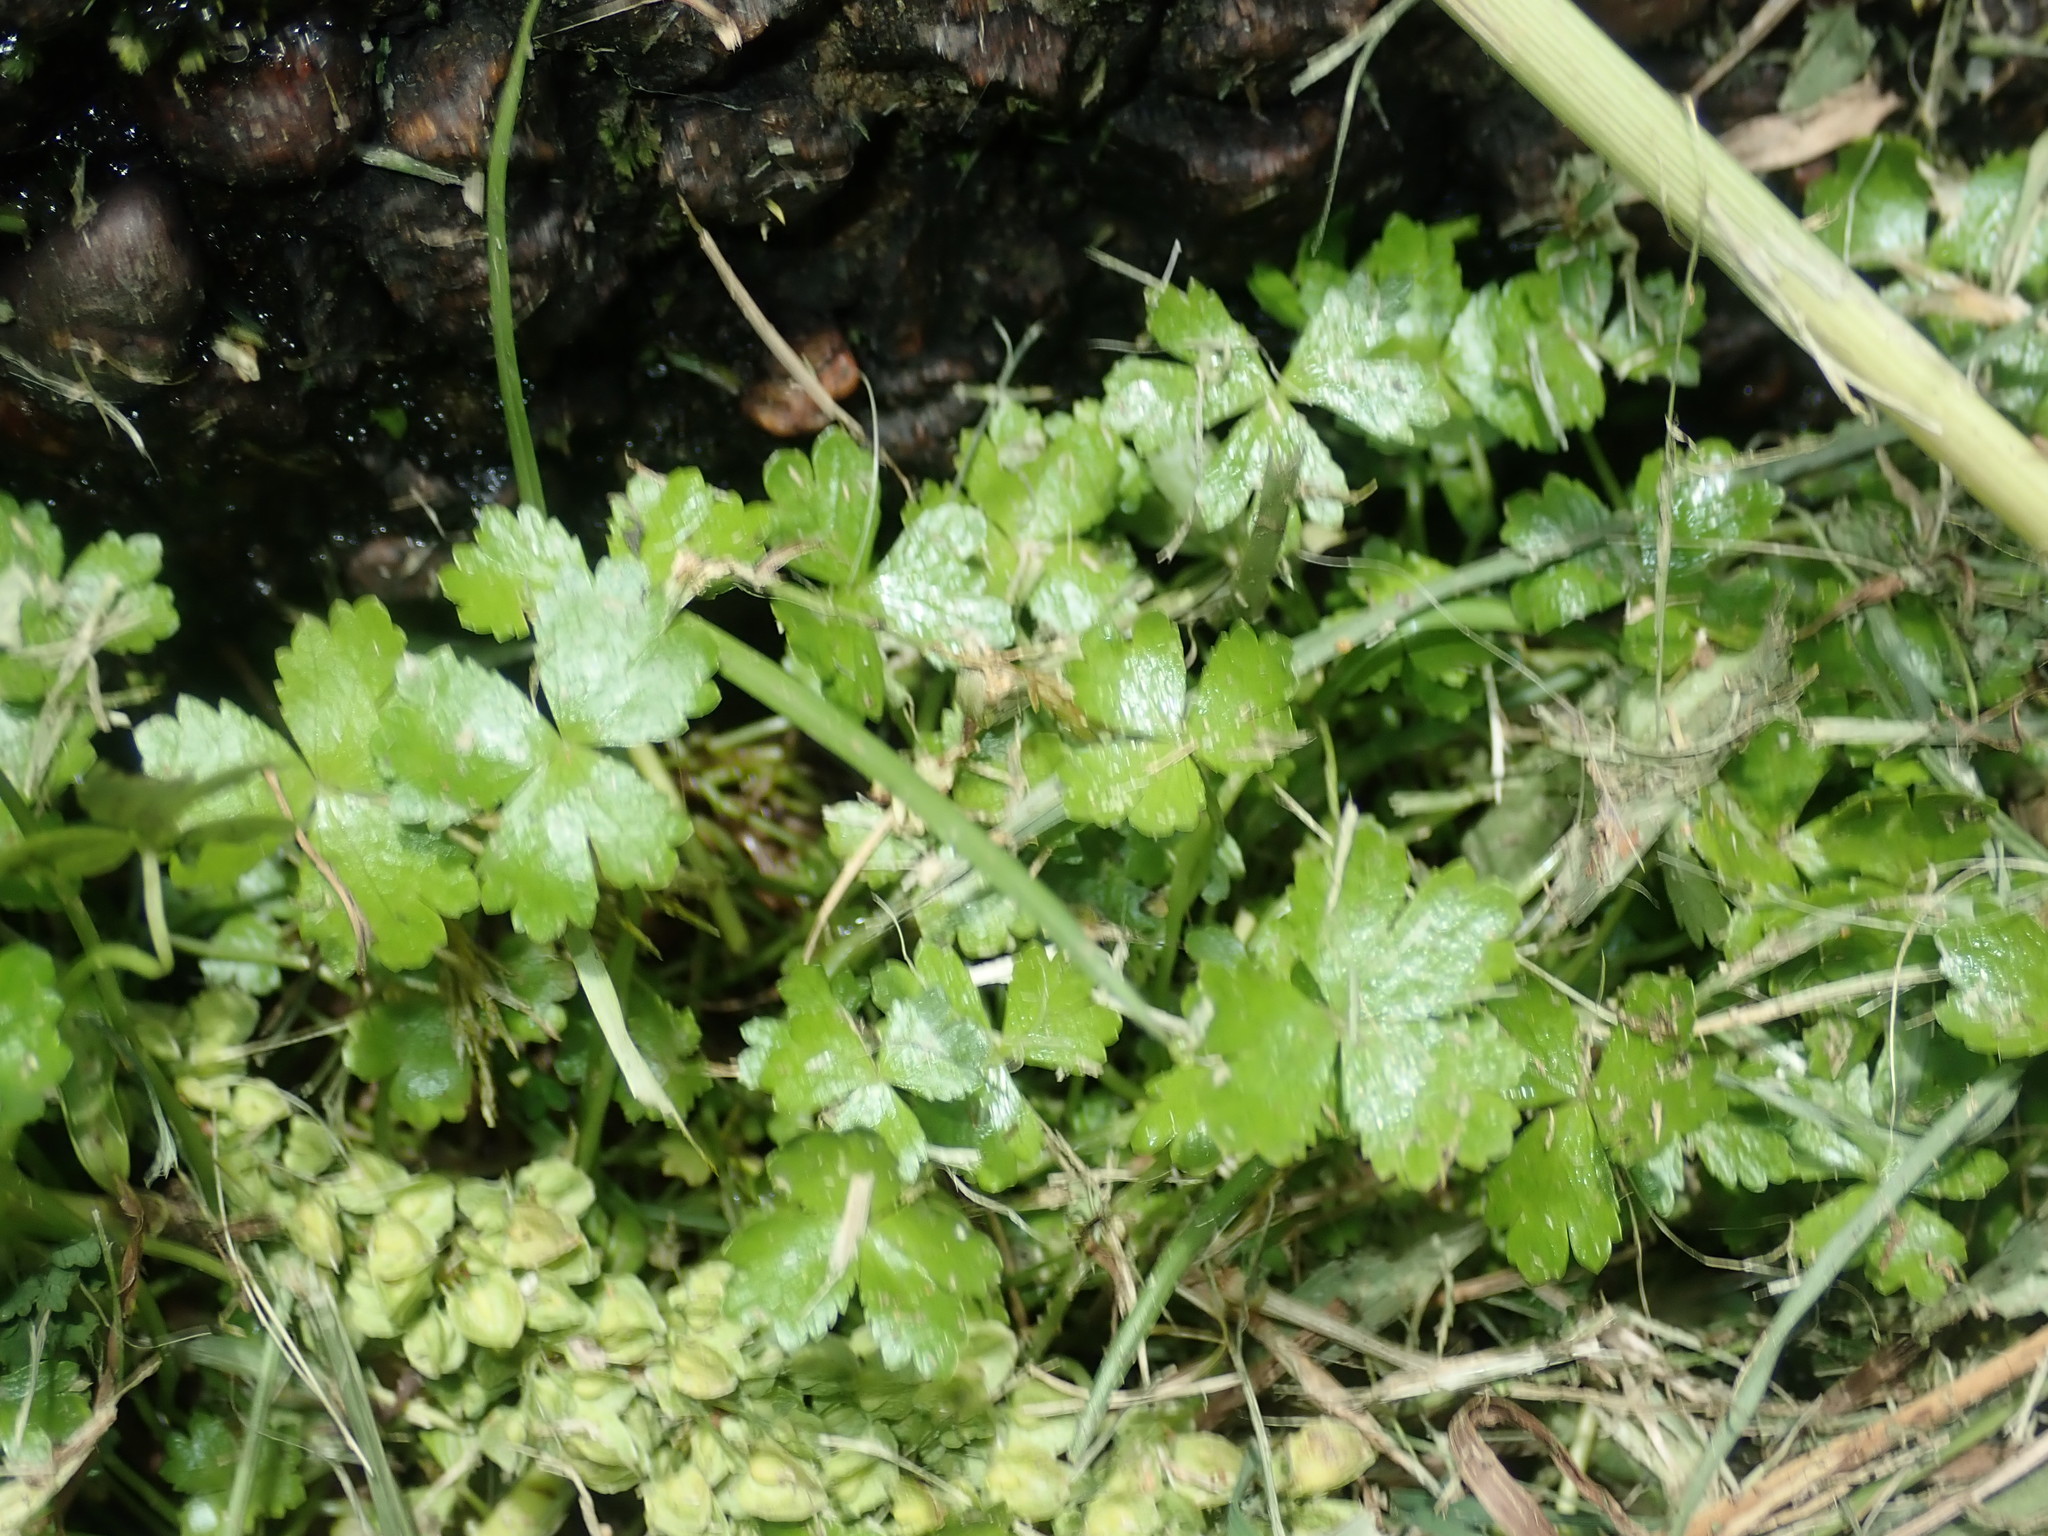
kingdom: Plantae
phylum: Tracheophyta
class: Magnoliopsida
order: Apiales
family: Araliaceae
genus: Hydrocotyle
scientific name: Hydrocotyle tripartita
